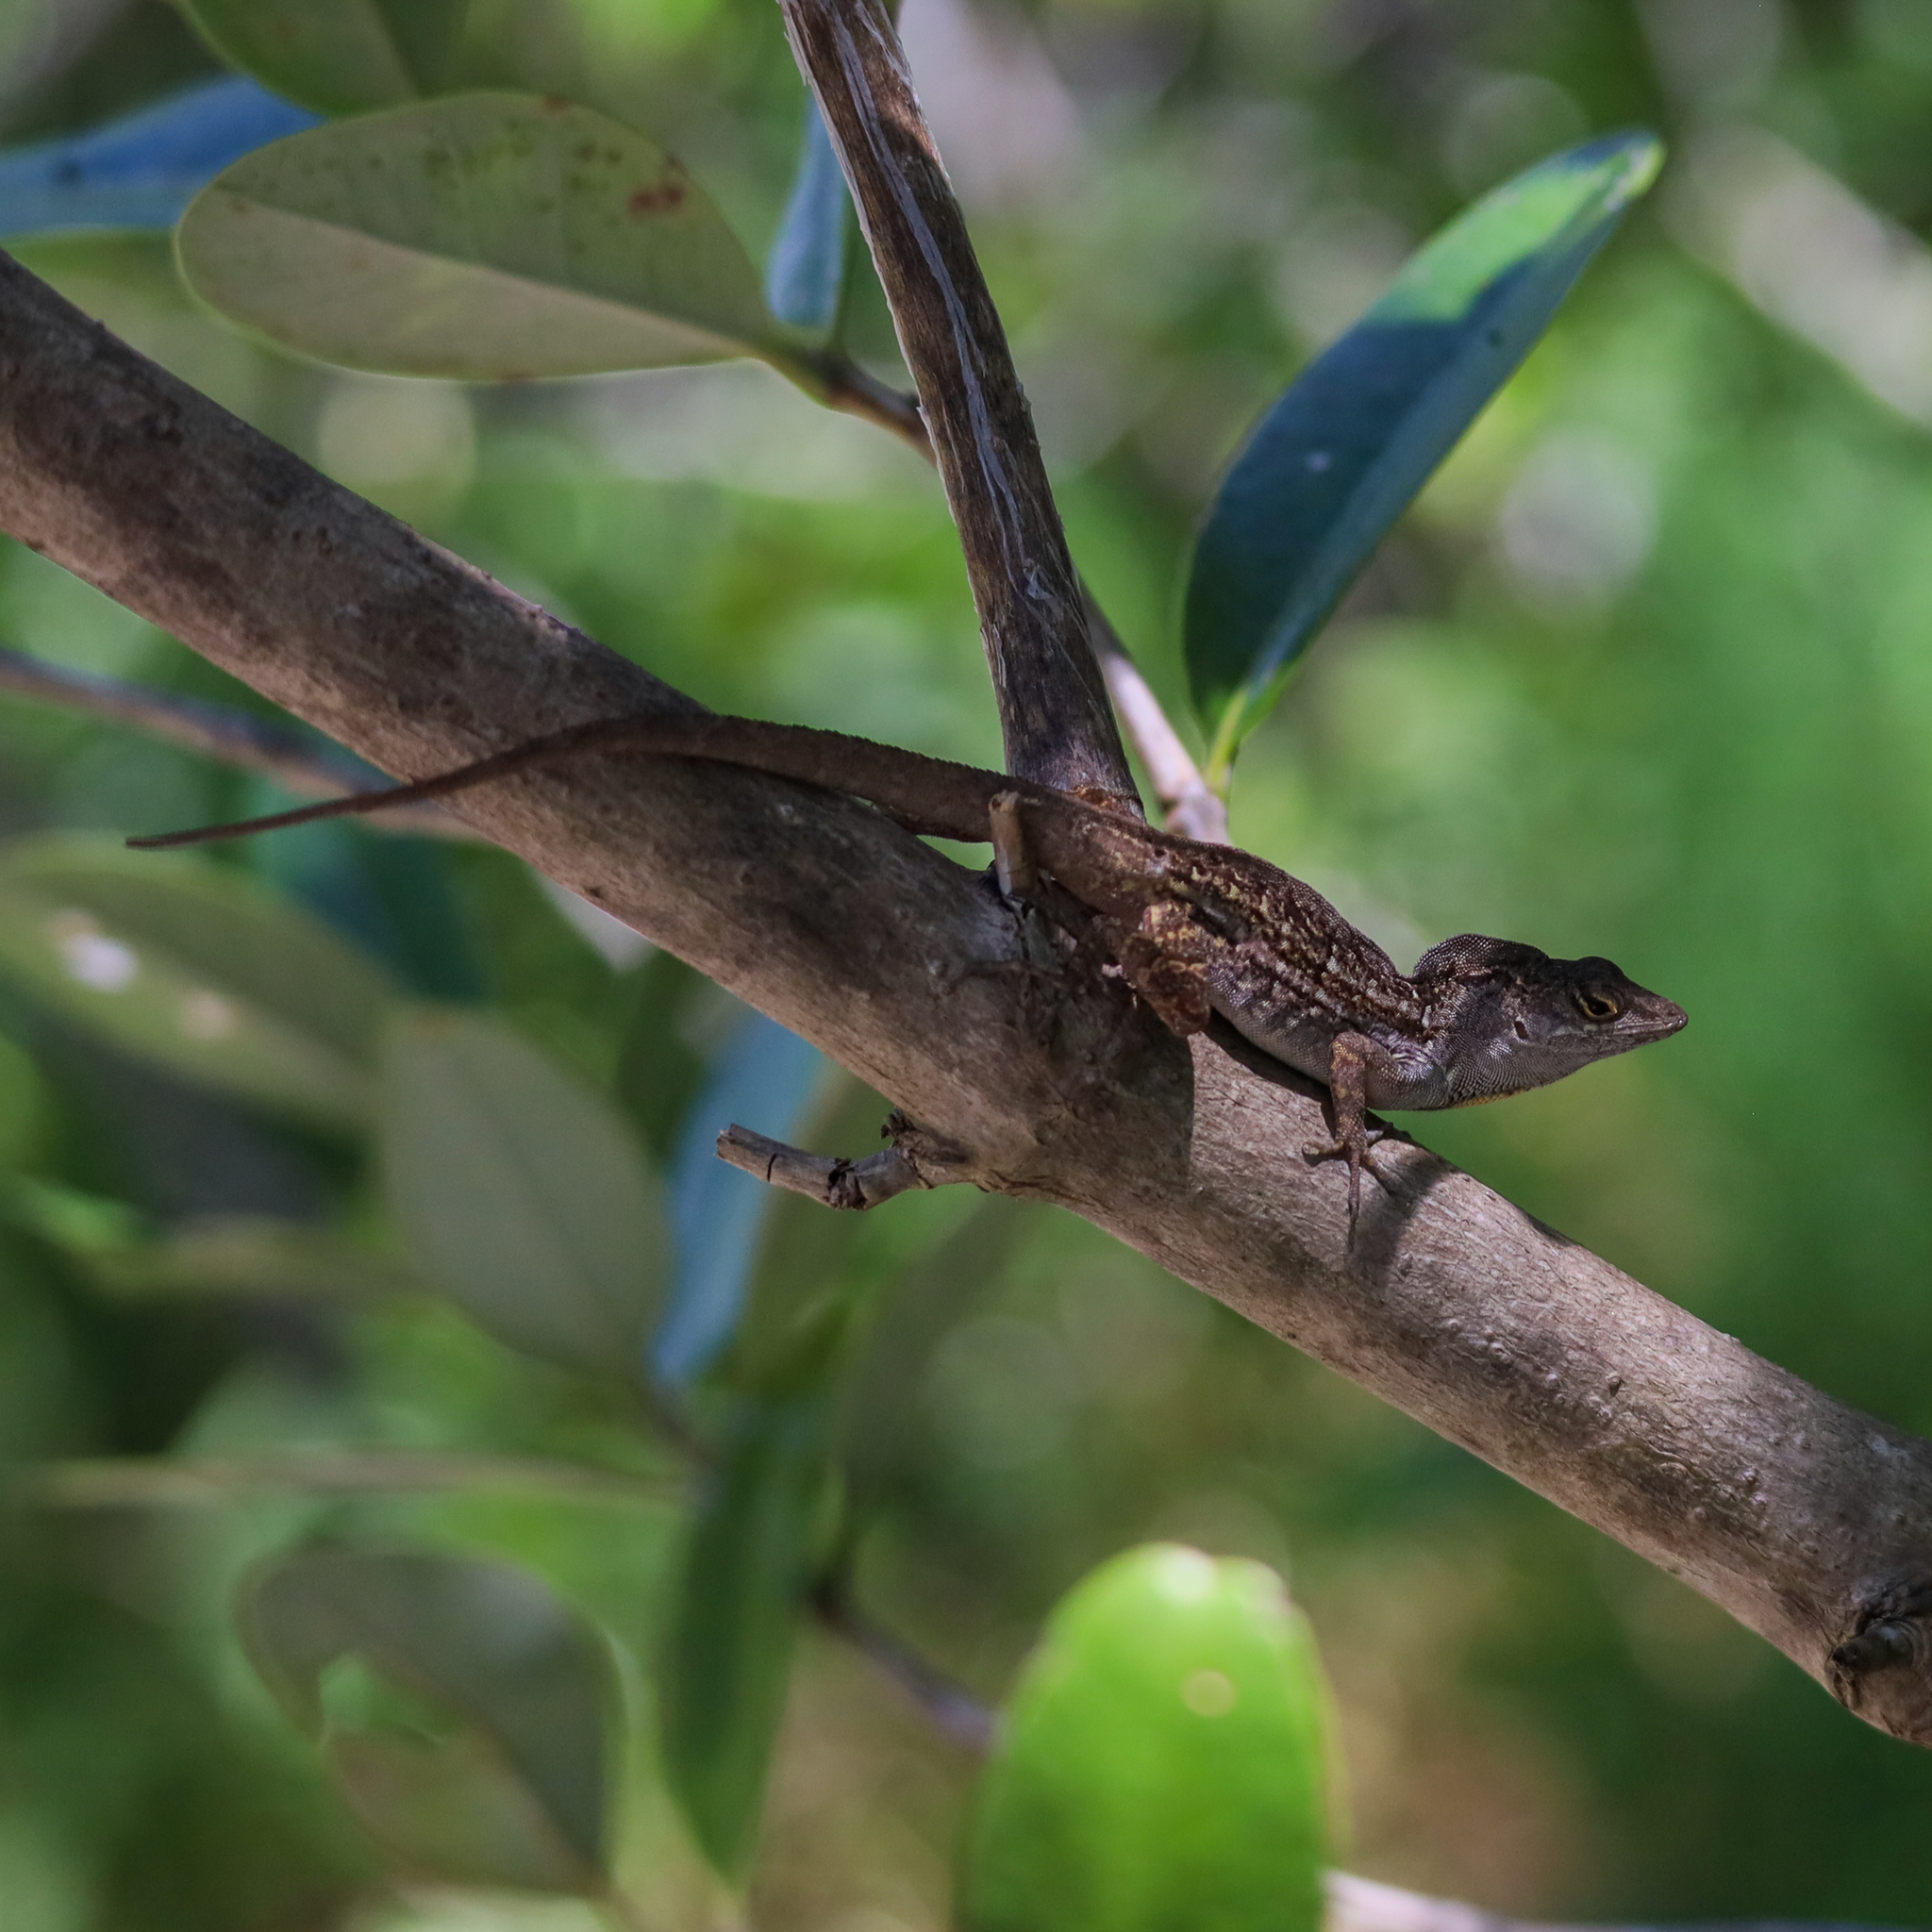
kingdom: Animalia
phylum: Chordata
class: Squamata
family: Dactyloidae
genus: Anolis
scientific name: Anolis sagrei
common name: Brown anole
